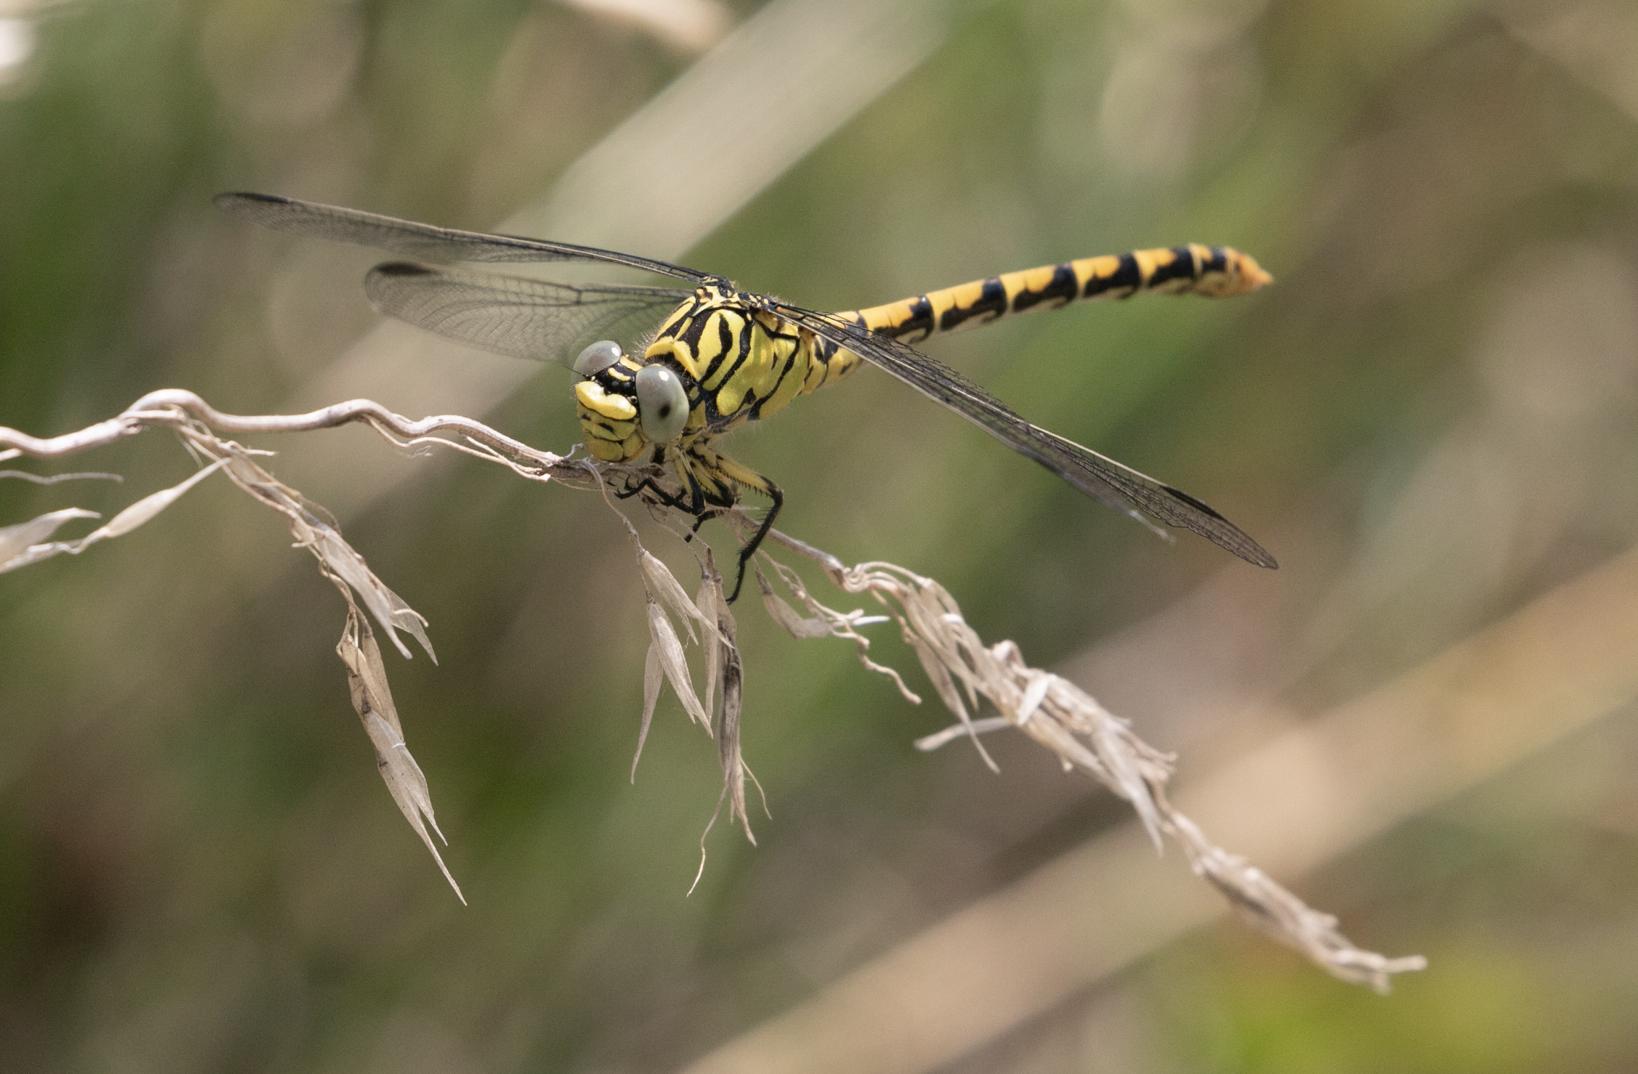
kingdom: Animalia
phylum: Arthropoda
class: Insecta
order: Odonata
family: Gomphidae
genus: Onychogomphus
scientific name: Onychogomphus forcipatus
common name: Small pincertail
